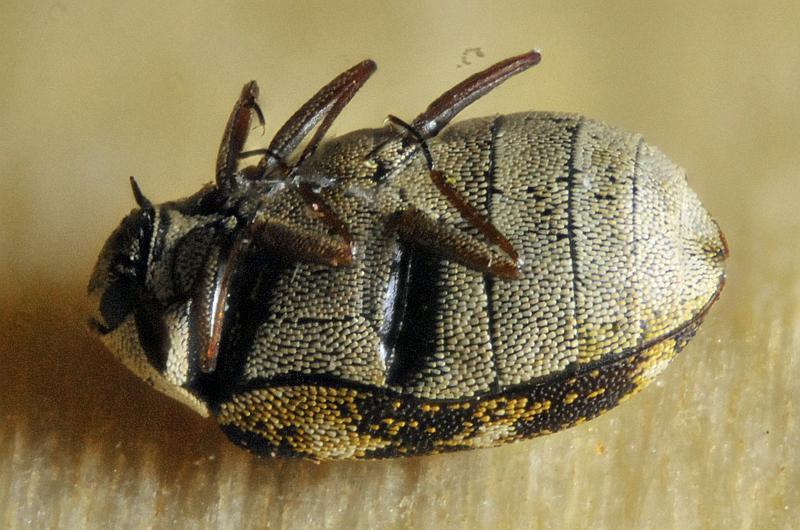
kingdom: Animalia
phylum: Arthropoda
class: Insecta
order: Coleoptera
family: Dermestidae
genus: Anthrenus
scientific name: Anthrenus museorum
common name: Museum beetle
